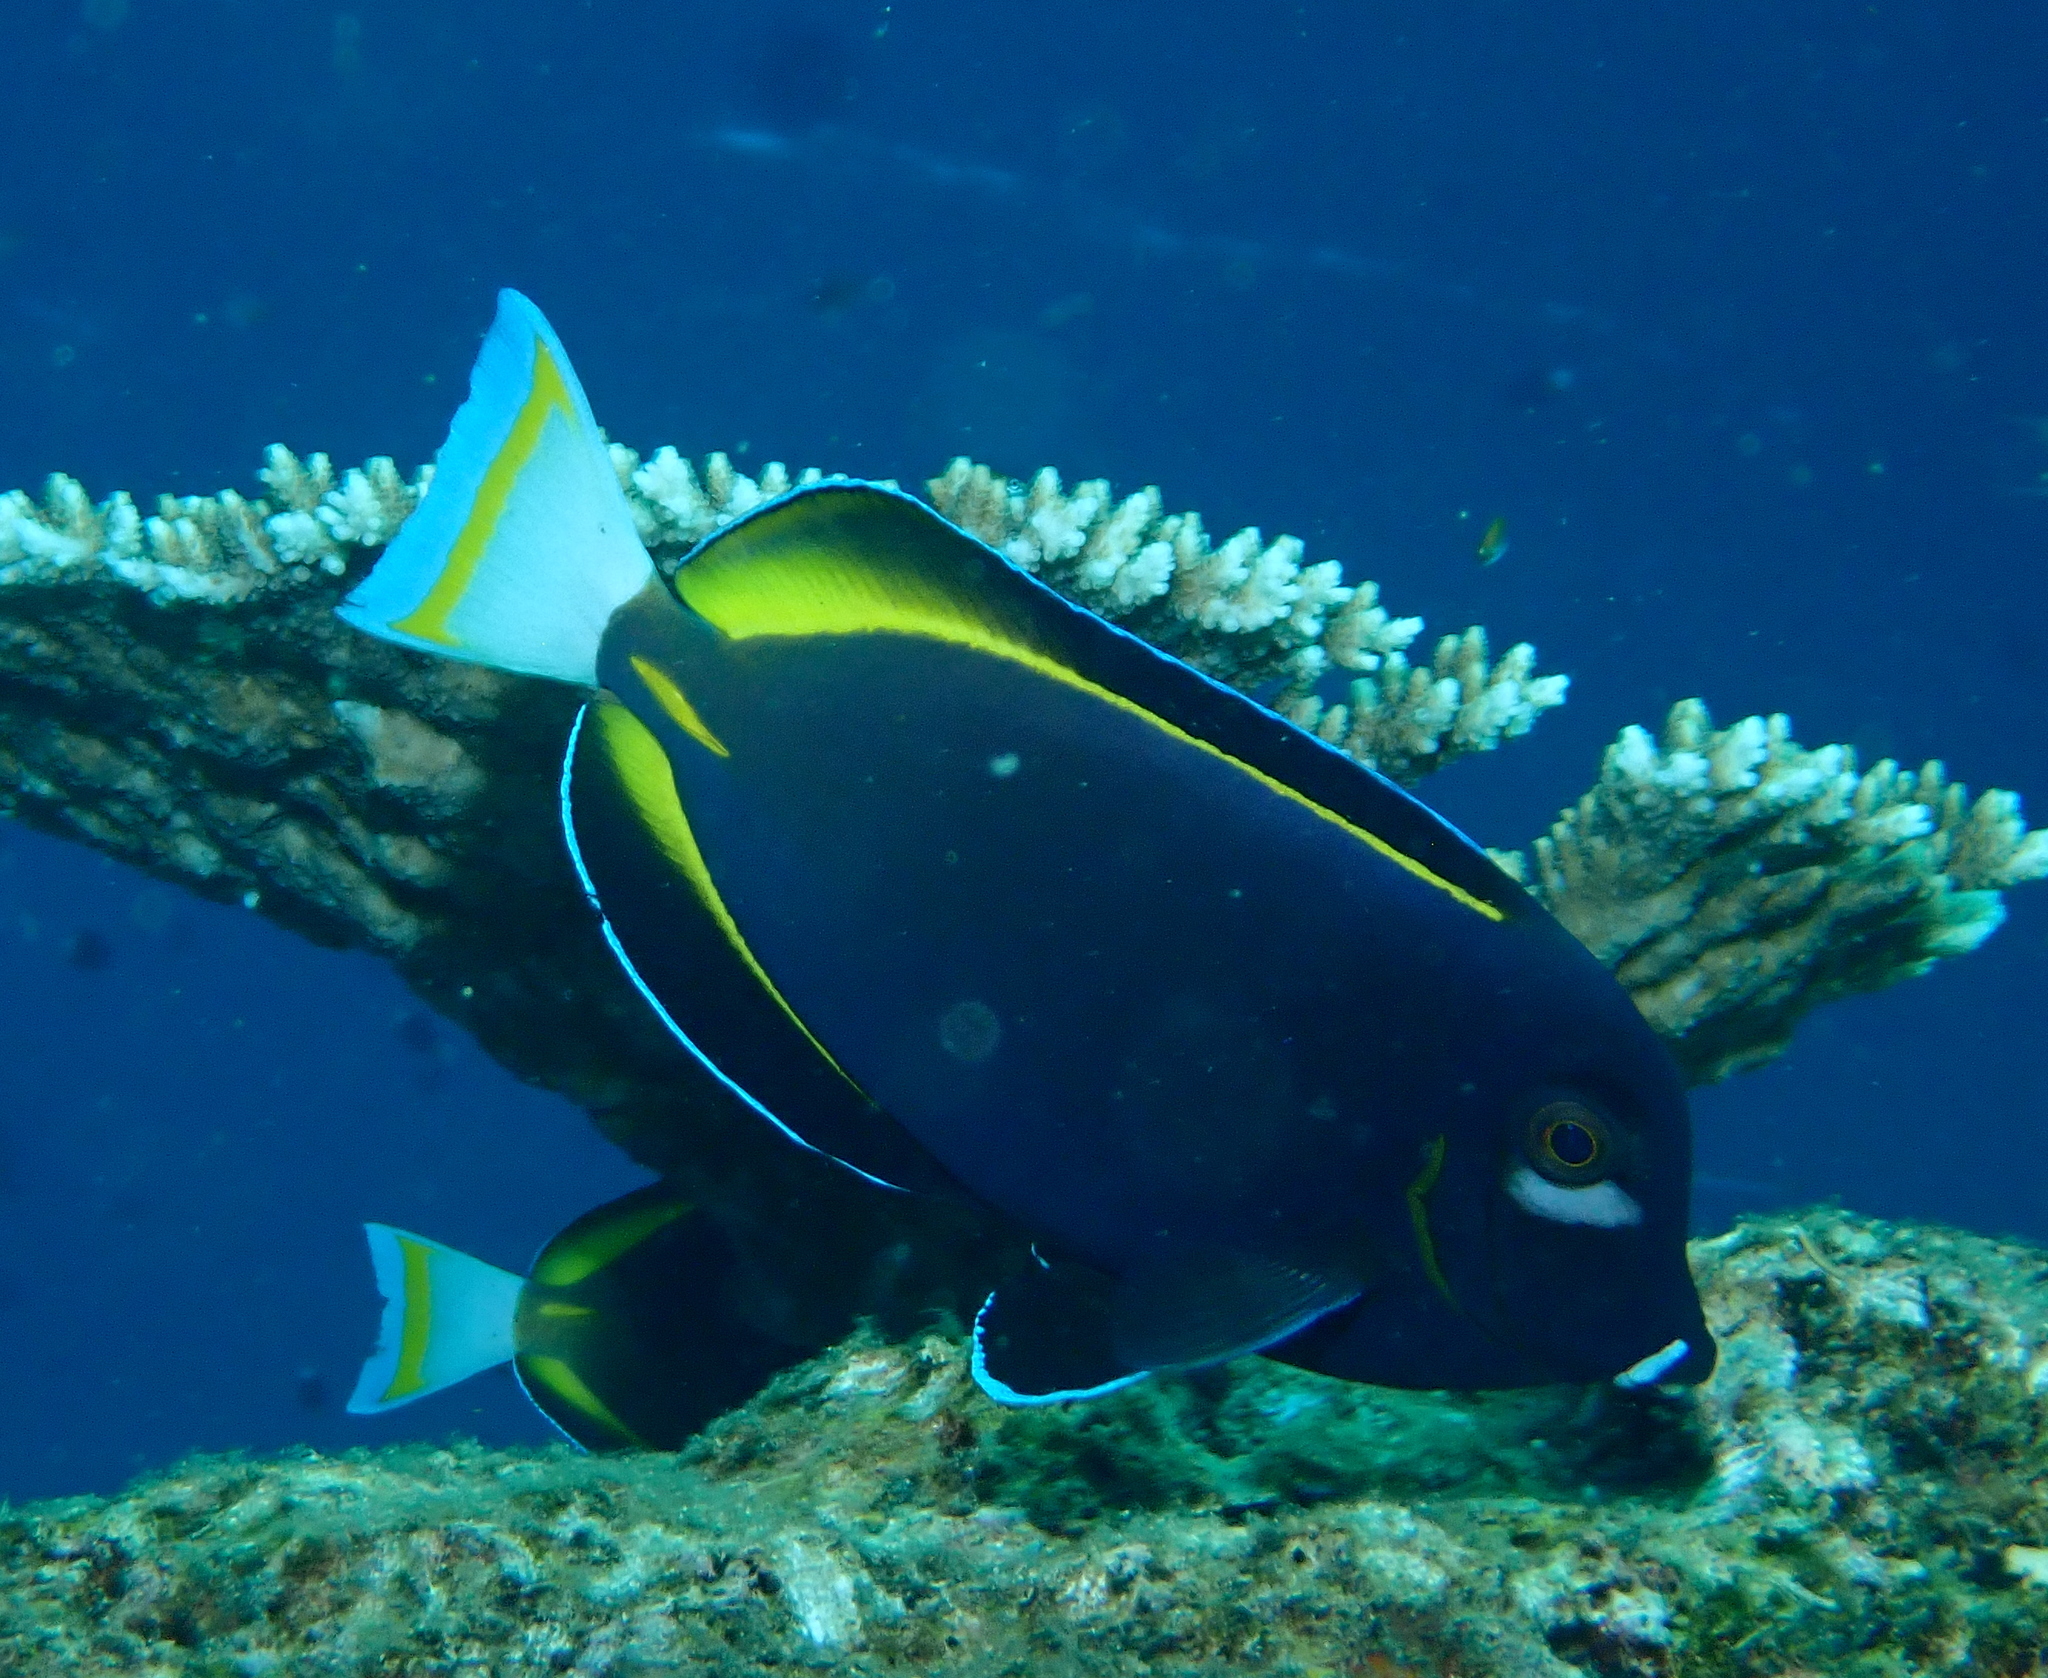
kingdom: Animalia
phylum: Chordata
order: Perciformes
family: Acanthuridae
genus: Acanthurus
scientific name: Acanthurus nigricans
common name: Whitecheek surgeonfish
